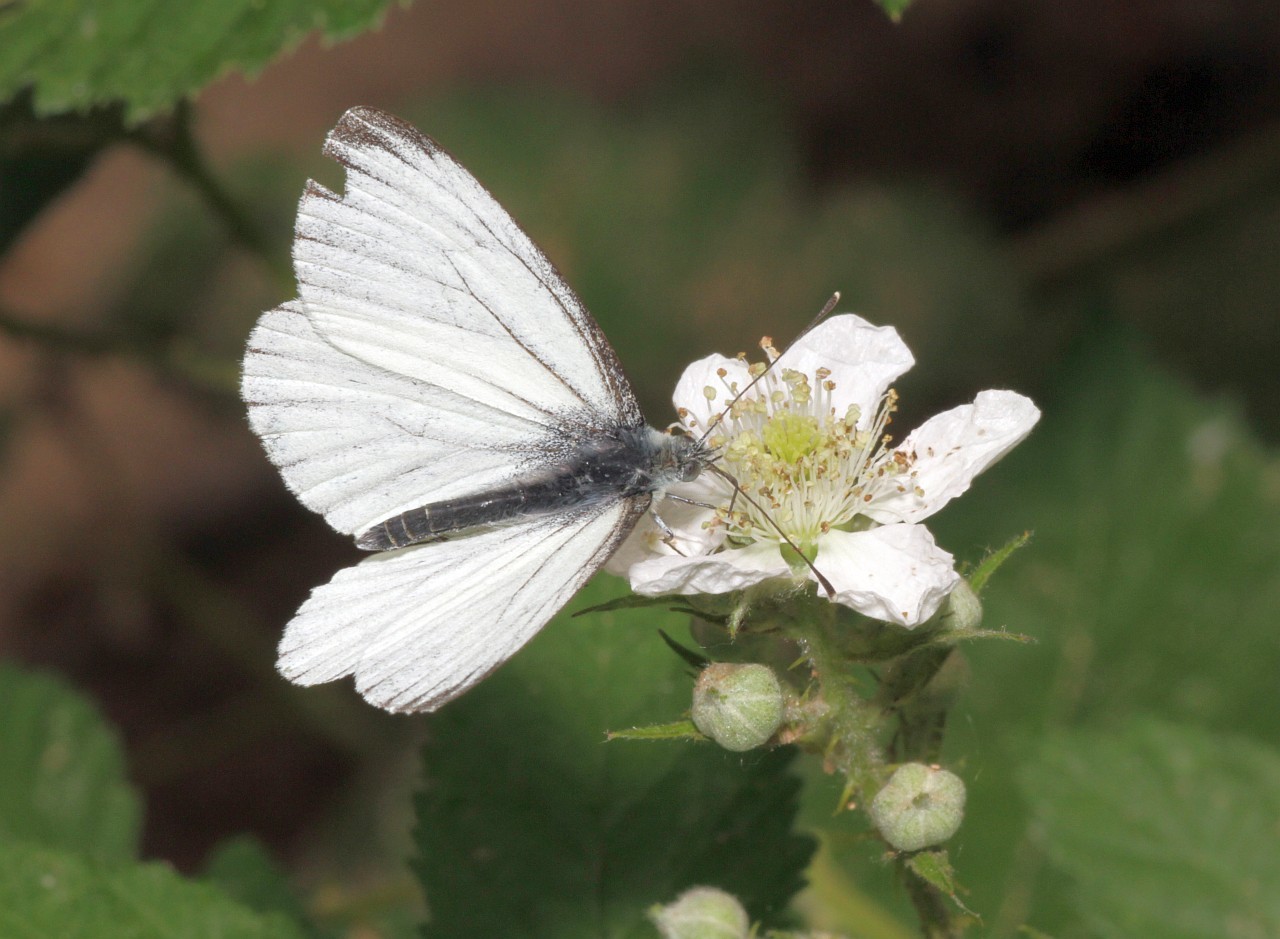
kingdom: Animalia
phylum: Arthropoda
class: Insecta
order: Lepidoptera
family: Pieridae
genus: Pieris
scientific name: Pieris napi
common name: Green-veined white
